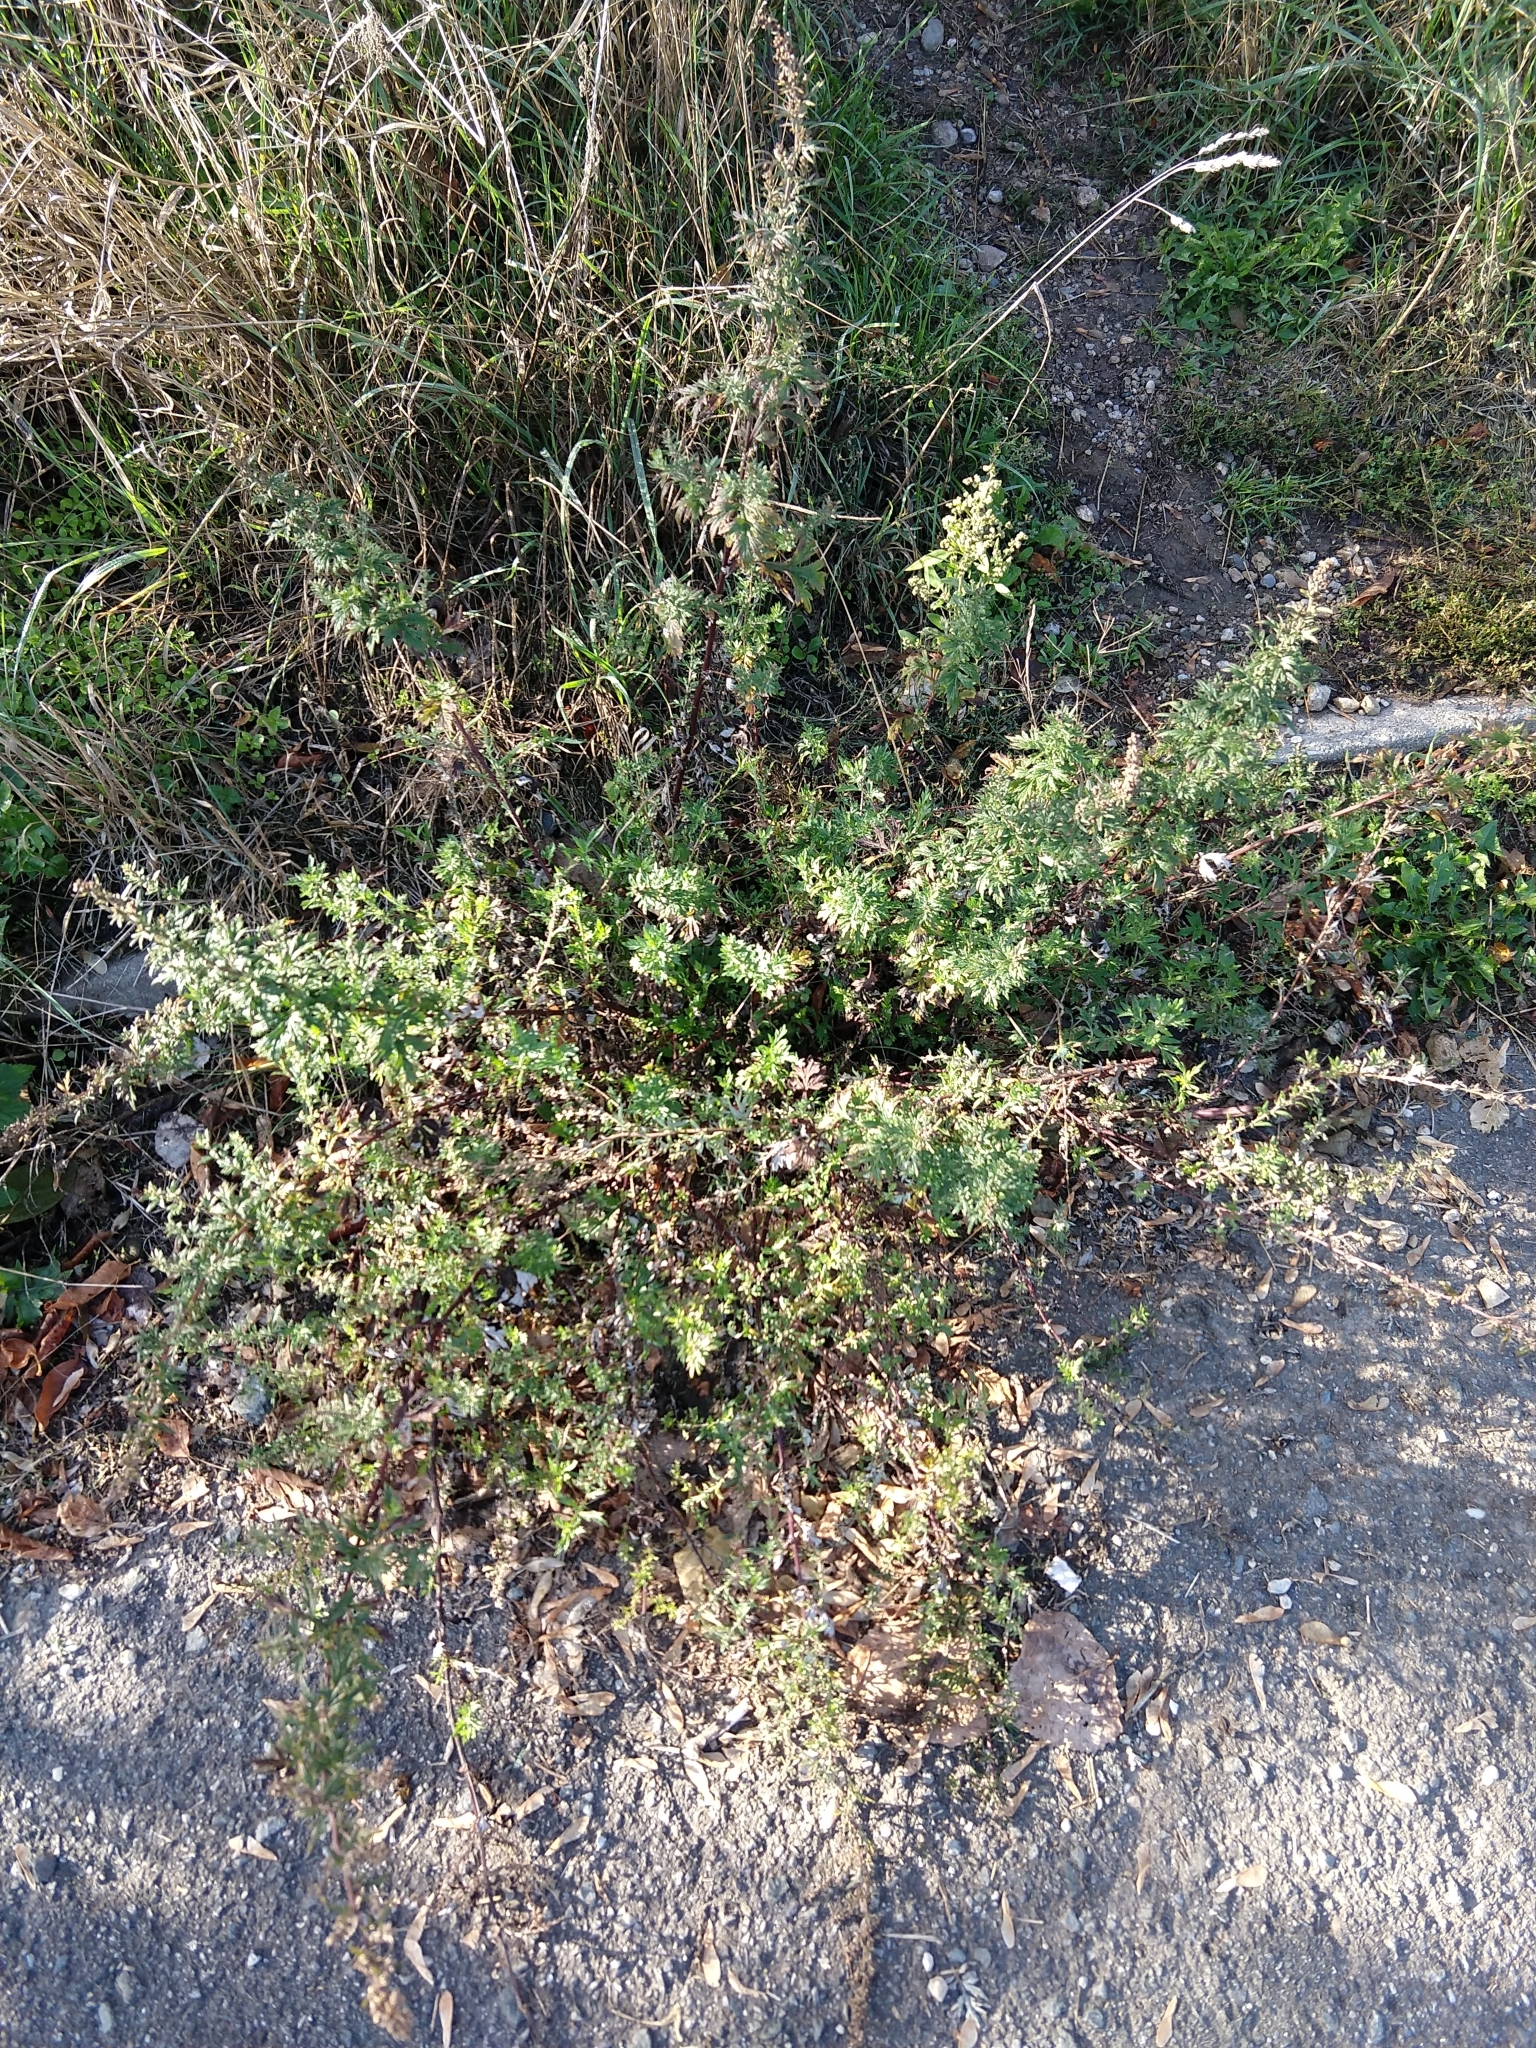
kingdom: Plantae
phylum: Tracheophyta
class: Magnoliopsida
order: Asterales
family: Asteraceae
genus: Artemisia
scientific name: Artemisia vulgaris
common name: Mugwort
